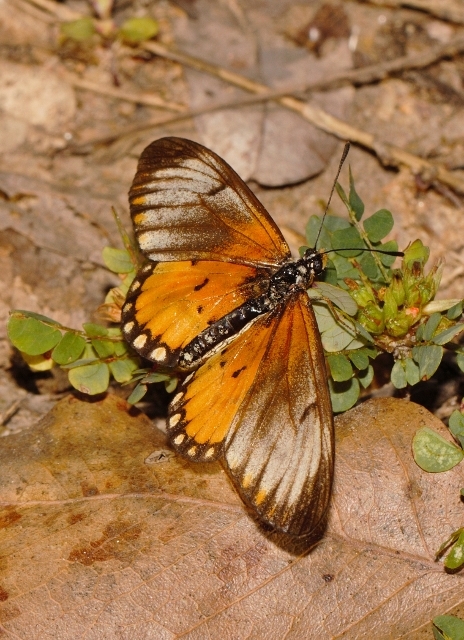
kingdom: Animalia
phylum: Arthropoda
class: Insecta
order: Lepidoptera
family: Nymphalidae
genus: Acraea
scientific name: Acraea Telchinia serena
